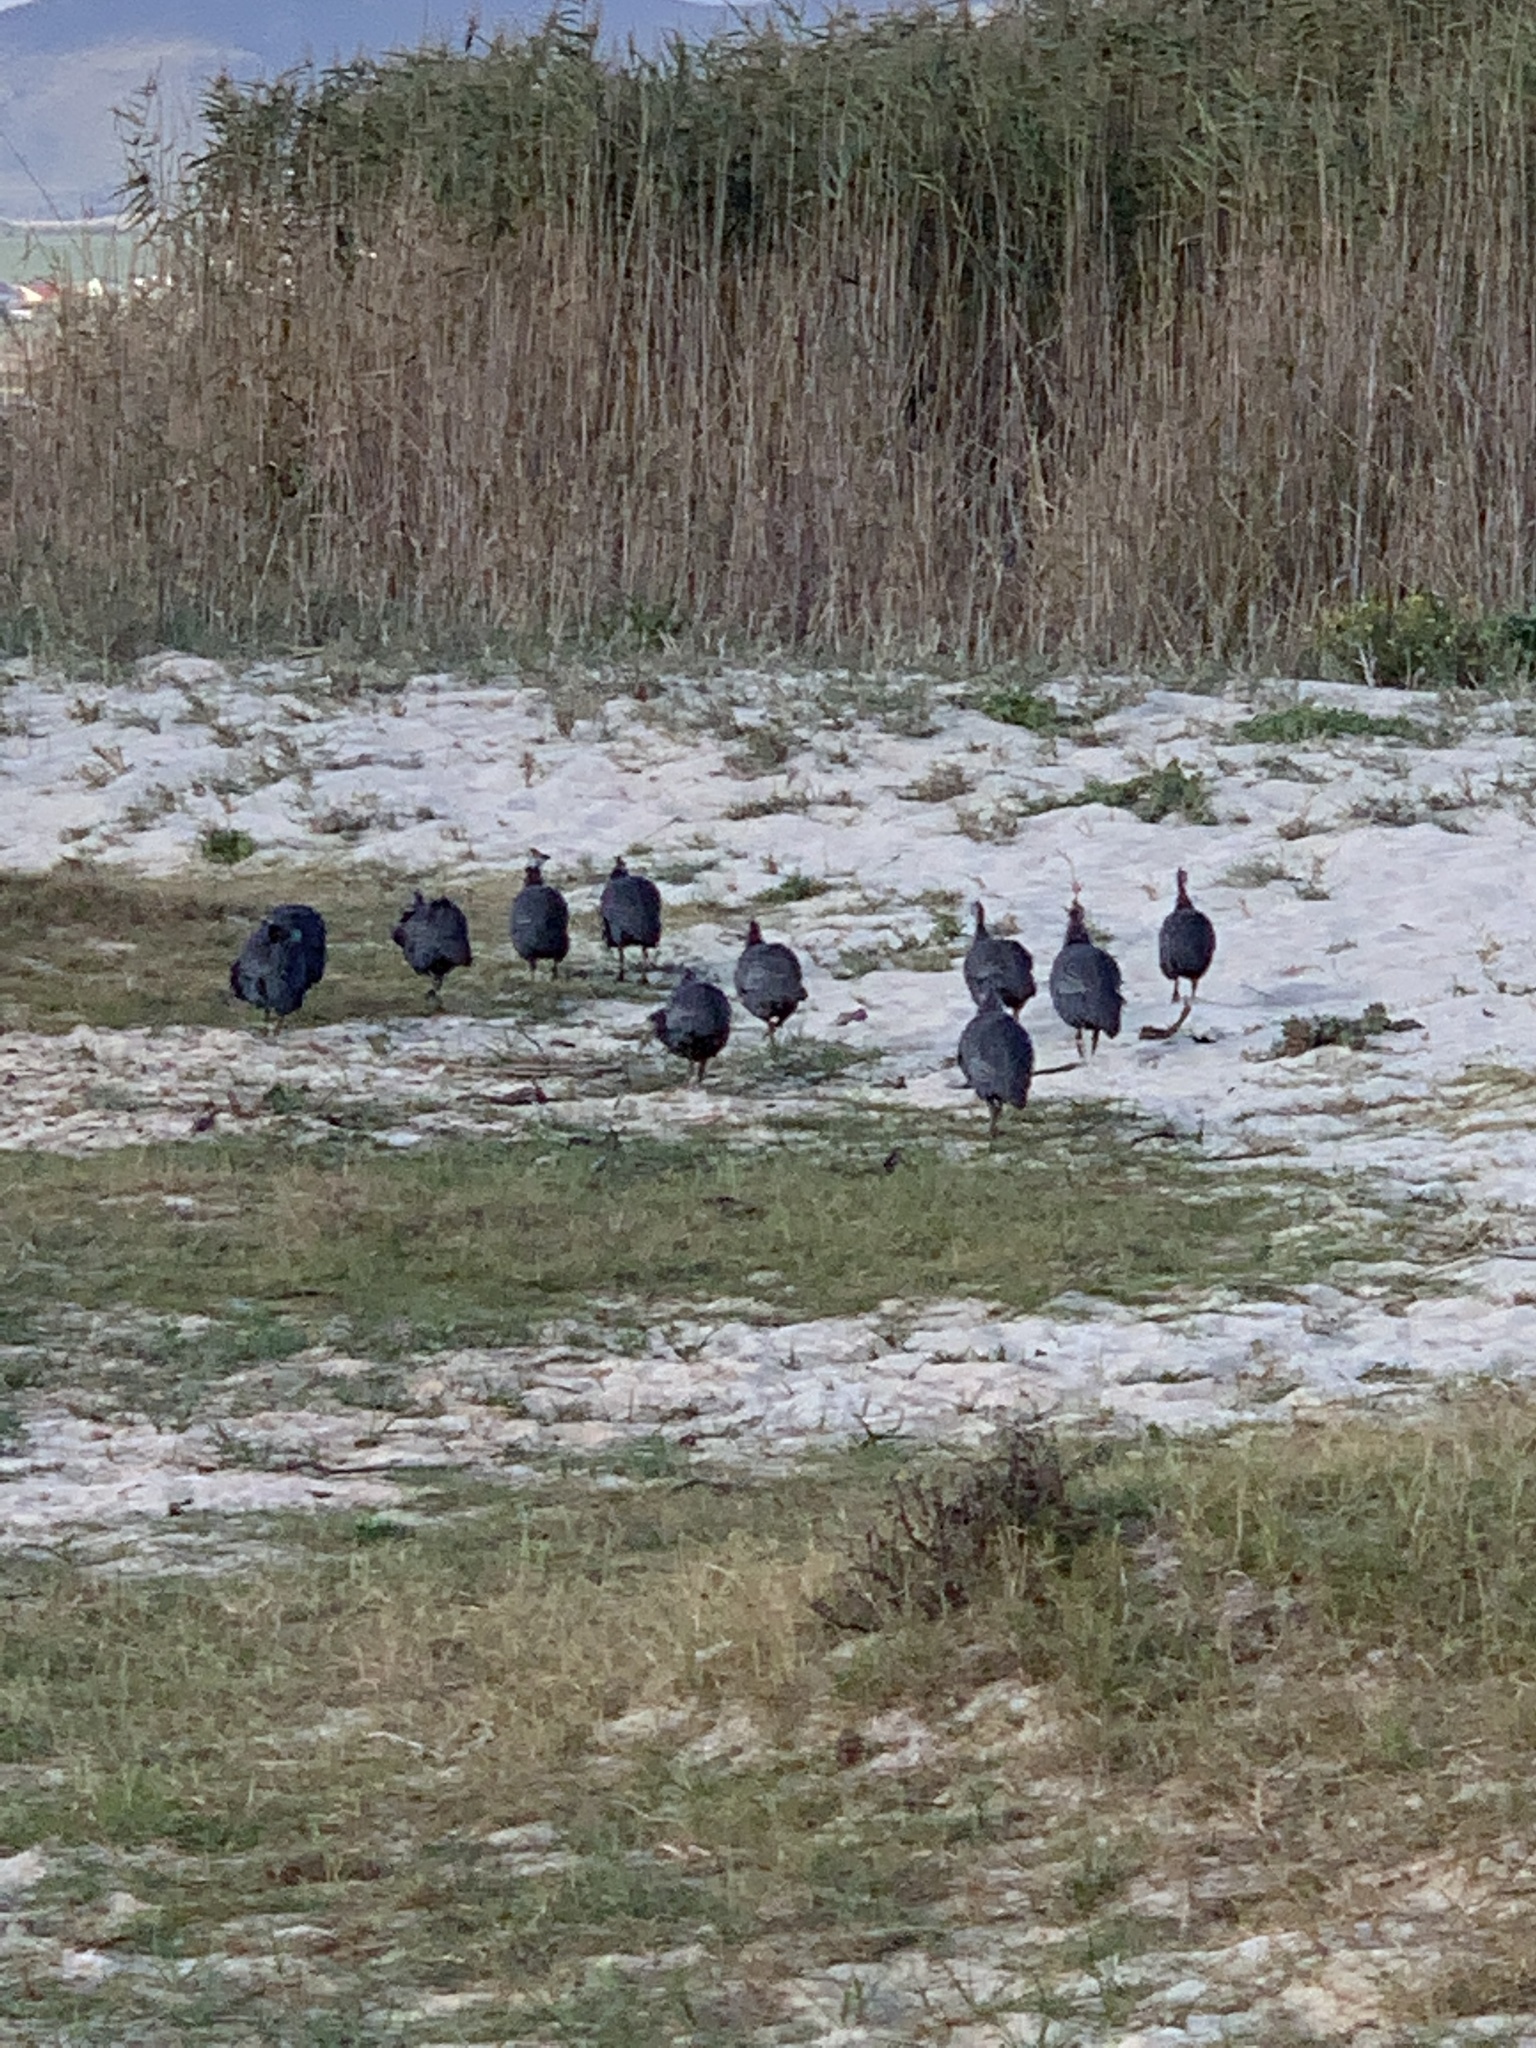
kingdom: Animalia
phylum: Chordata
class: Aves
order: Galliformes
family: Numididae
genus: Numida
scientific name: Numida meleagris
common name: Helmeted guineafowl
